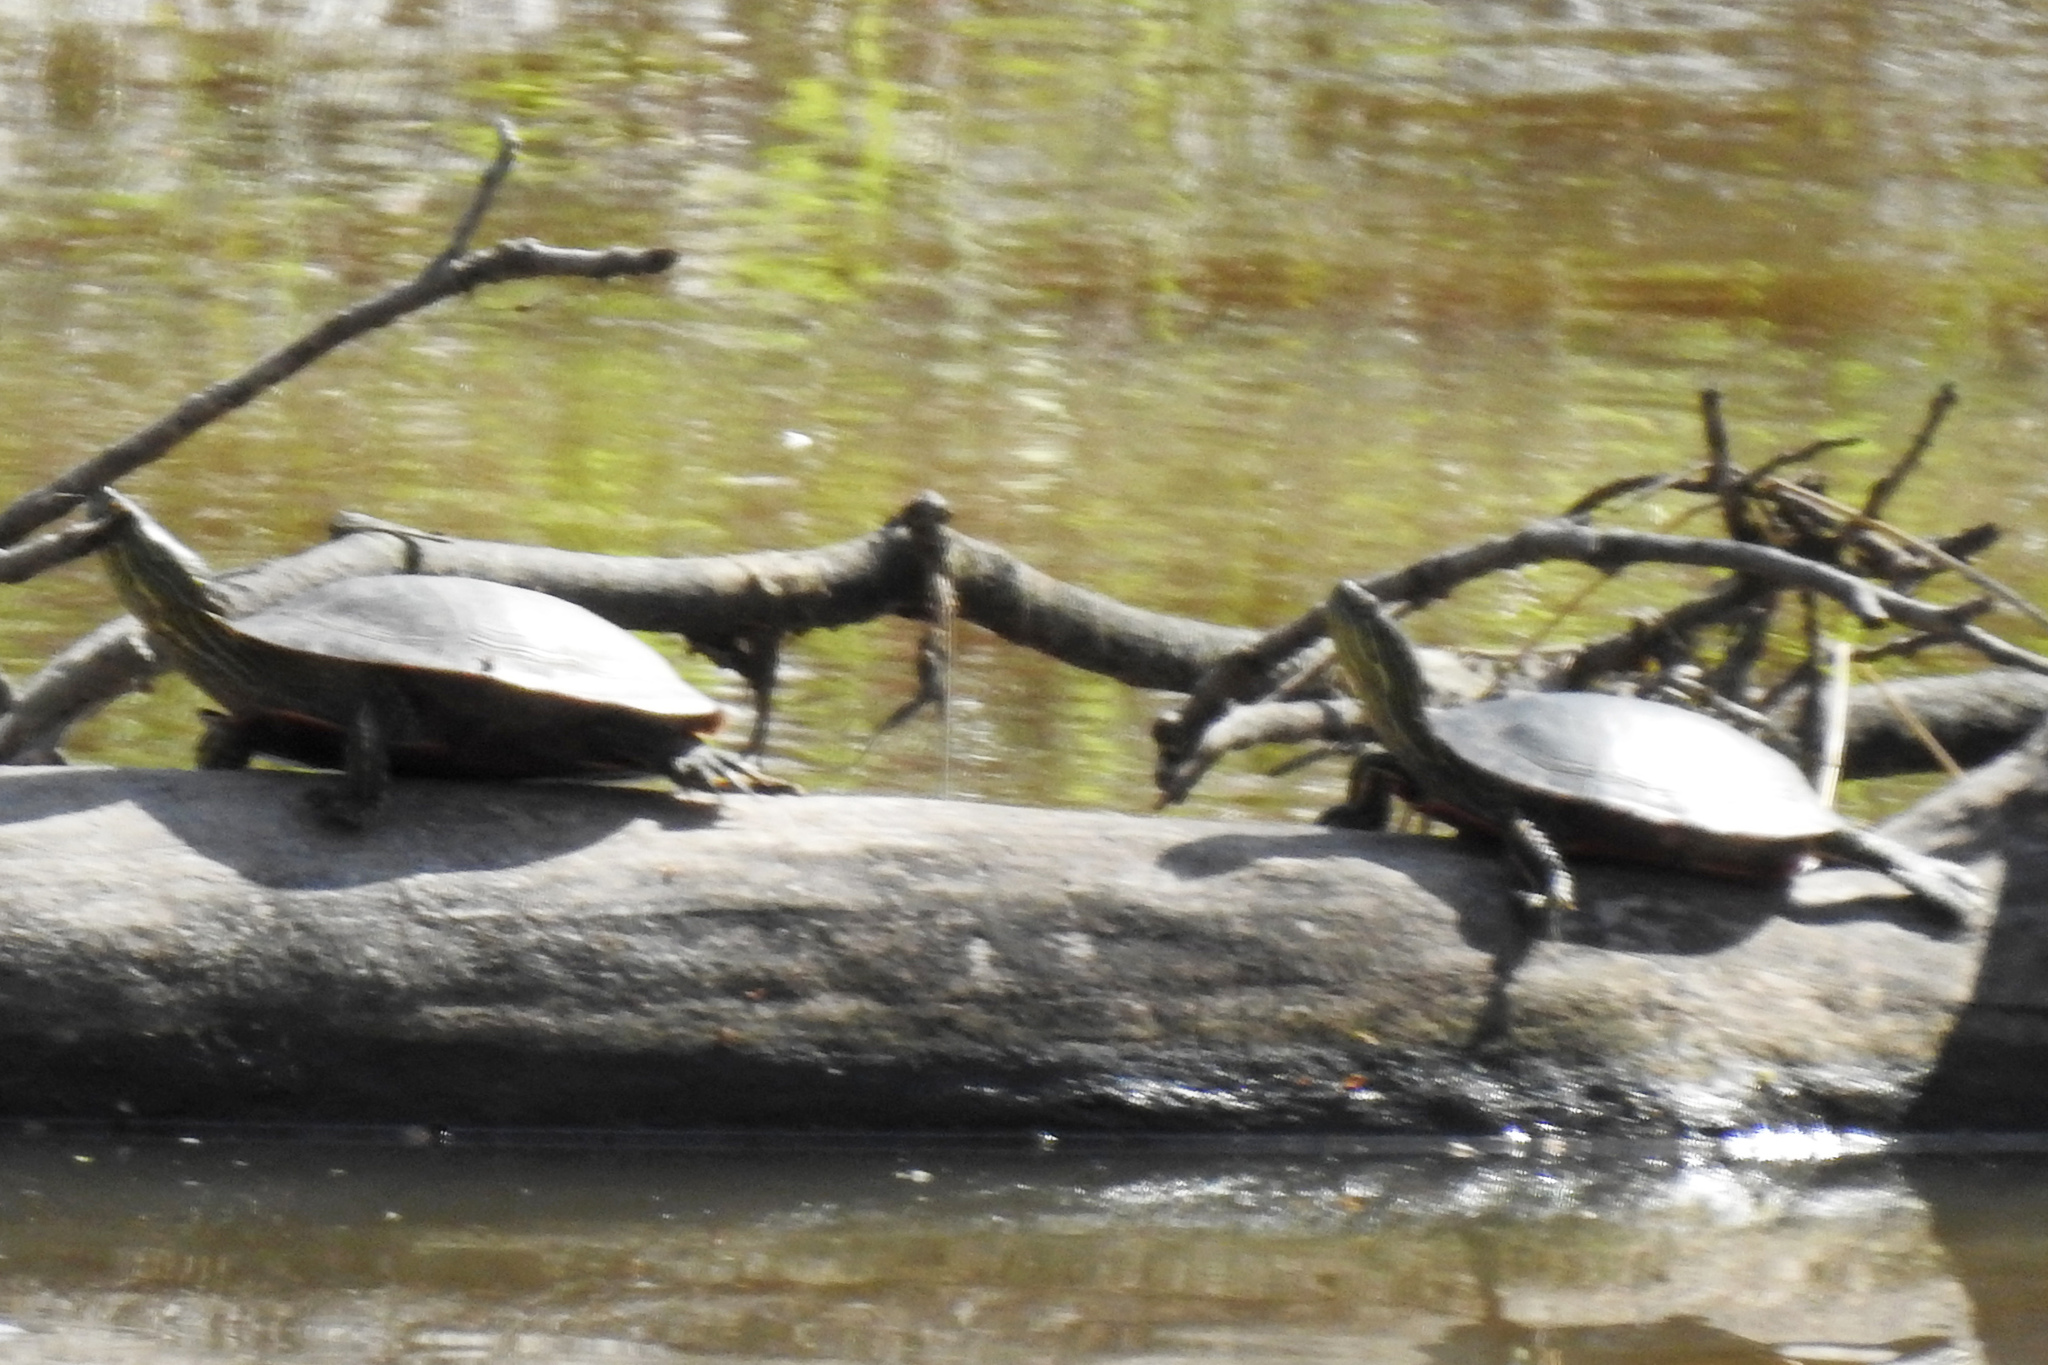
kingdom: Animalia
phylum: Chordata
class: Testudines
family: Emydidae
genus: Chrysemys
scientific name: Chrysemys picta
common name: Painted turtle
